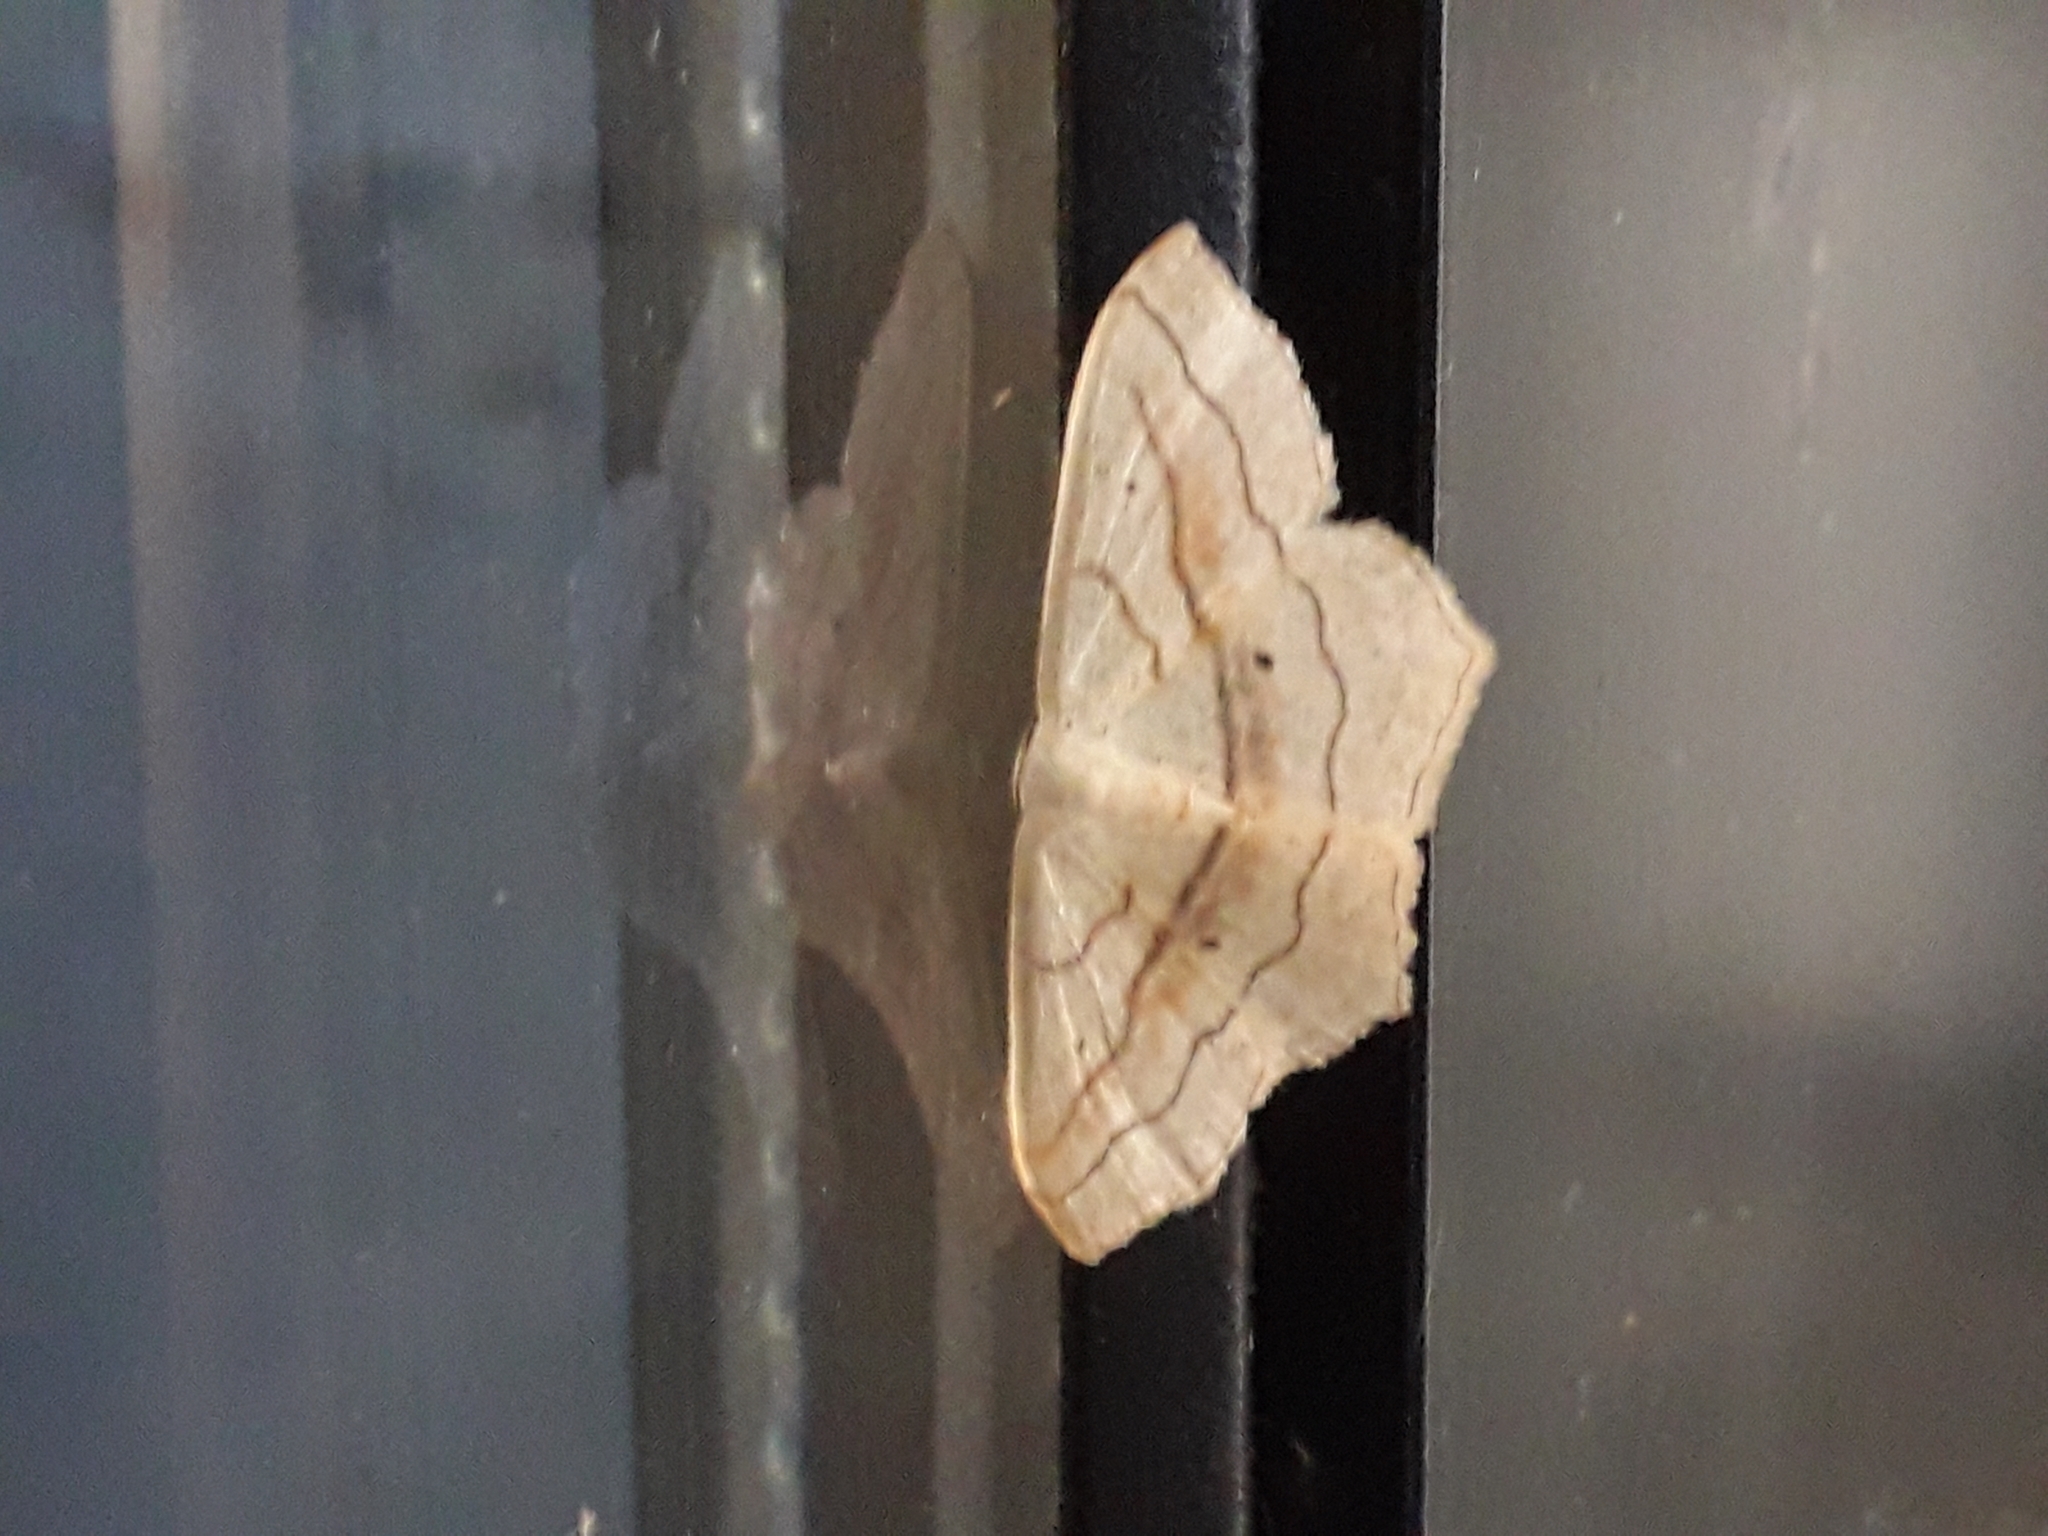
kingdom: Animalia
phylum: Arthropoda
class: Insecta
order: Lepidoptera
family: Geometridae
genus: Scopula
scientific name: Scopula imitaria
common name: Small blood-vein
